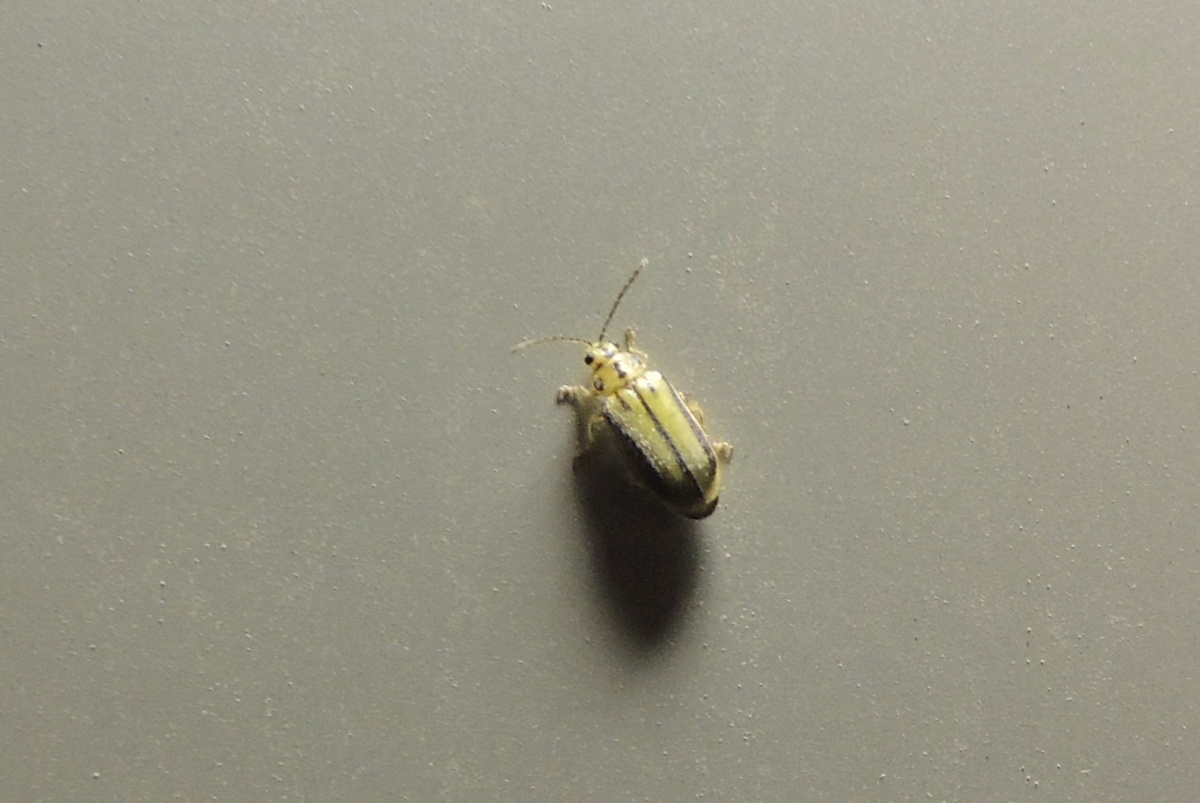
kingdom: Animalia
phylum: Arthropoda
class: Insecta
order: Coleoptera
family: Chrysomelidae
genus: Xanthogaleruca
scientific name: Xanthogaleruca luteola
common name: Elm leaf beetle
